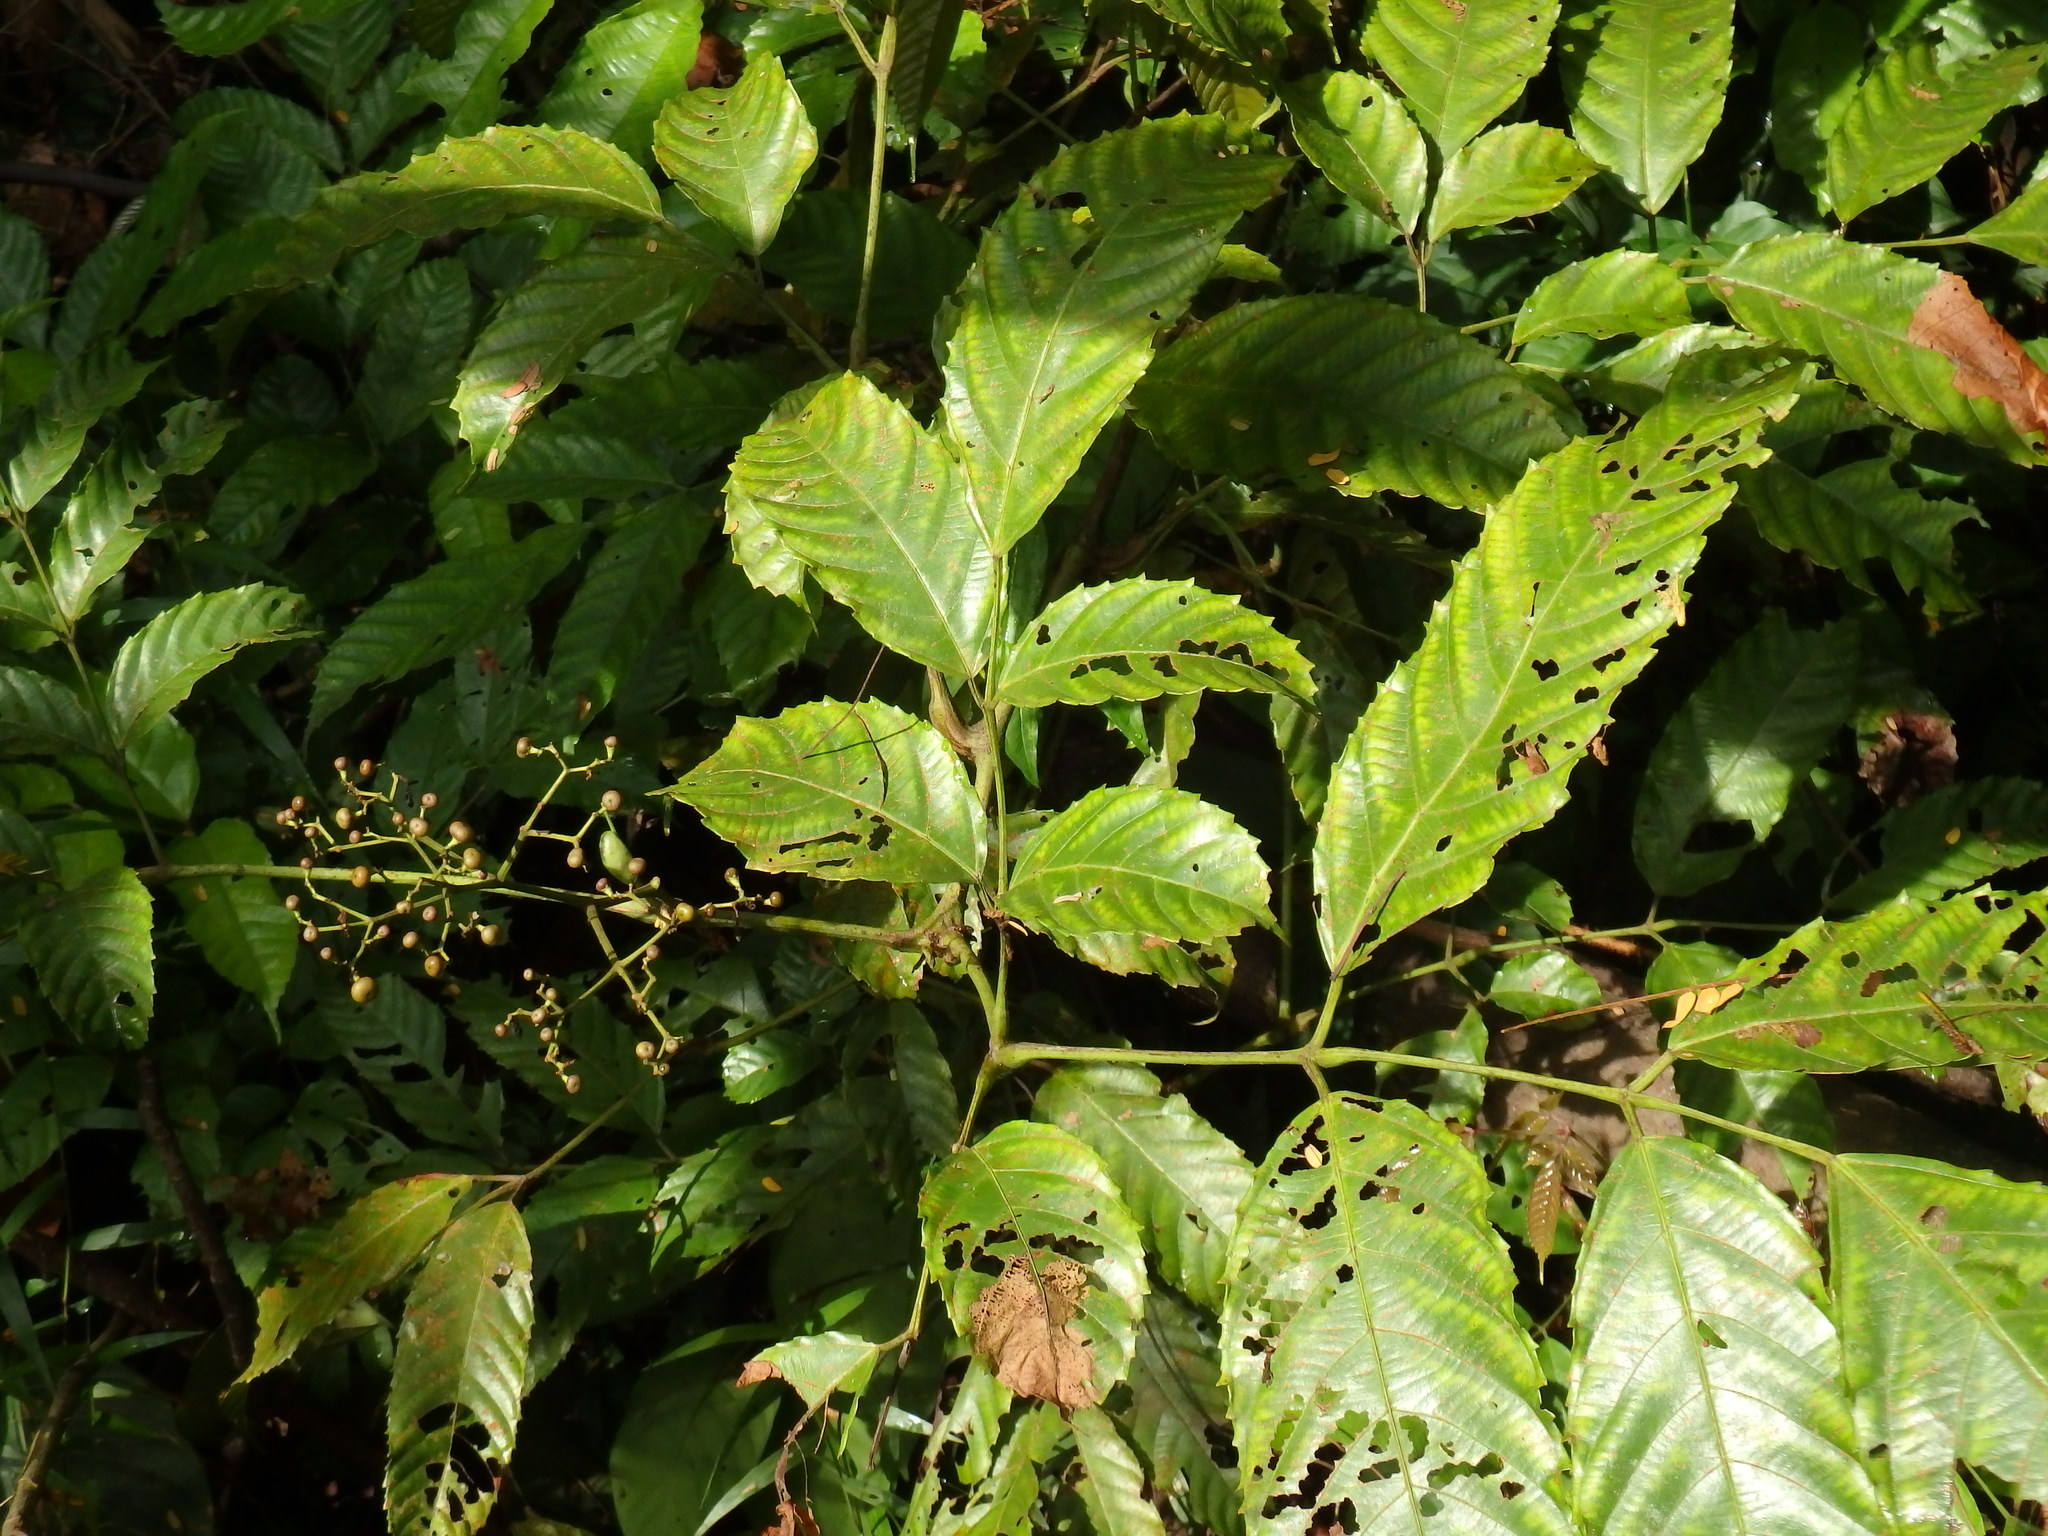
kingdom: Plantae
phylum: Tracheophyta
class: Magnoliopsida
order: Vitales
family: Vitaceae
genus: Leea
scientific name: Leea indica
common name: Bandicoot-berry
